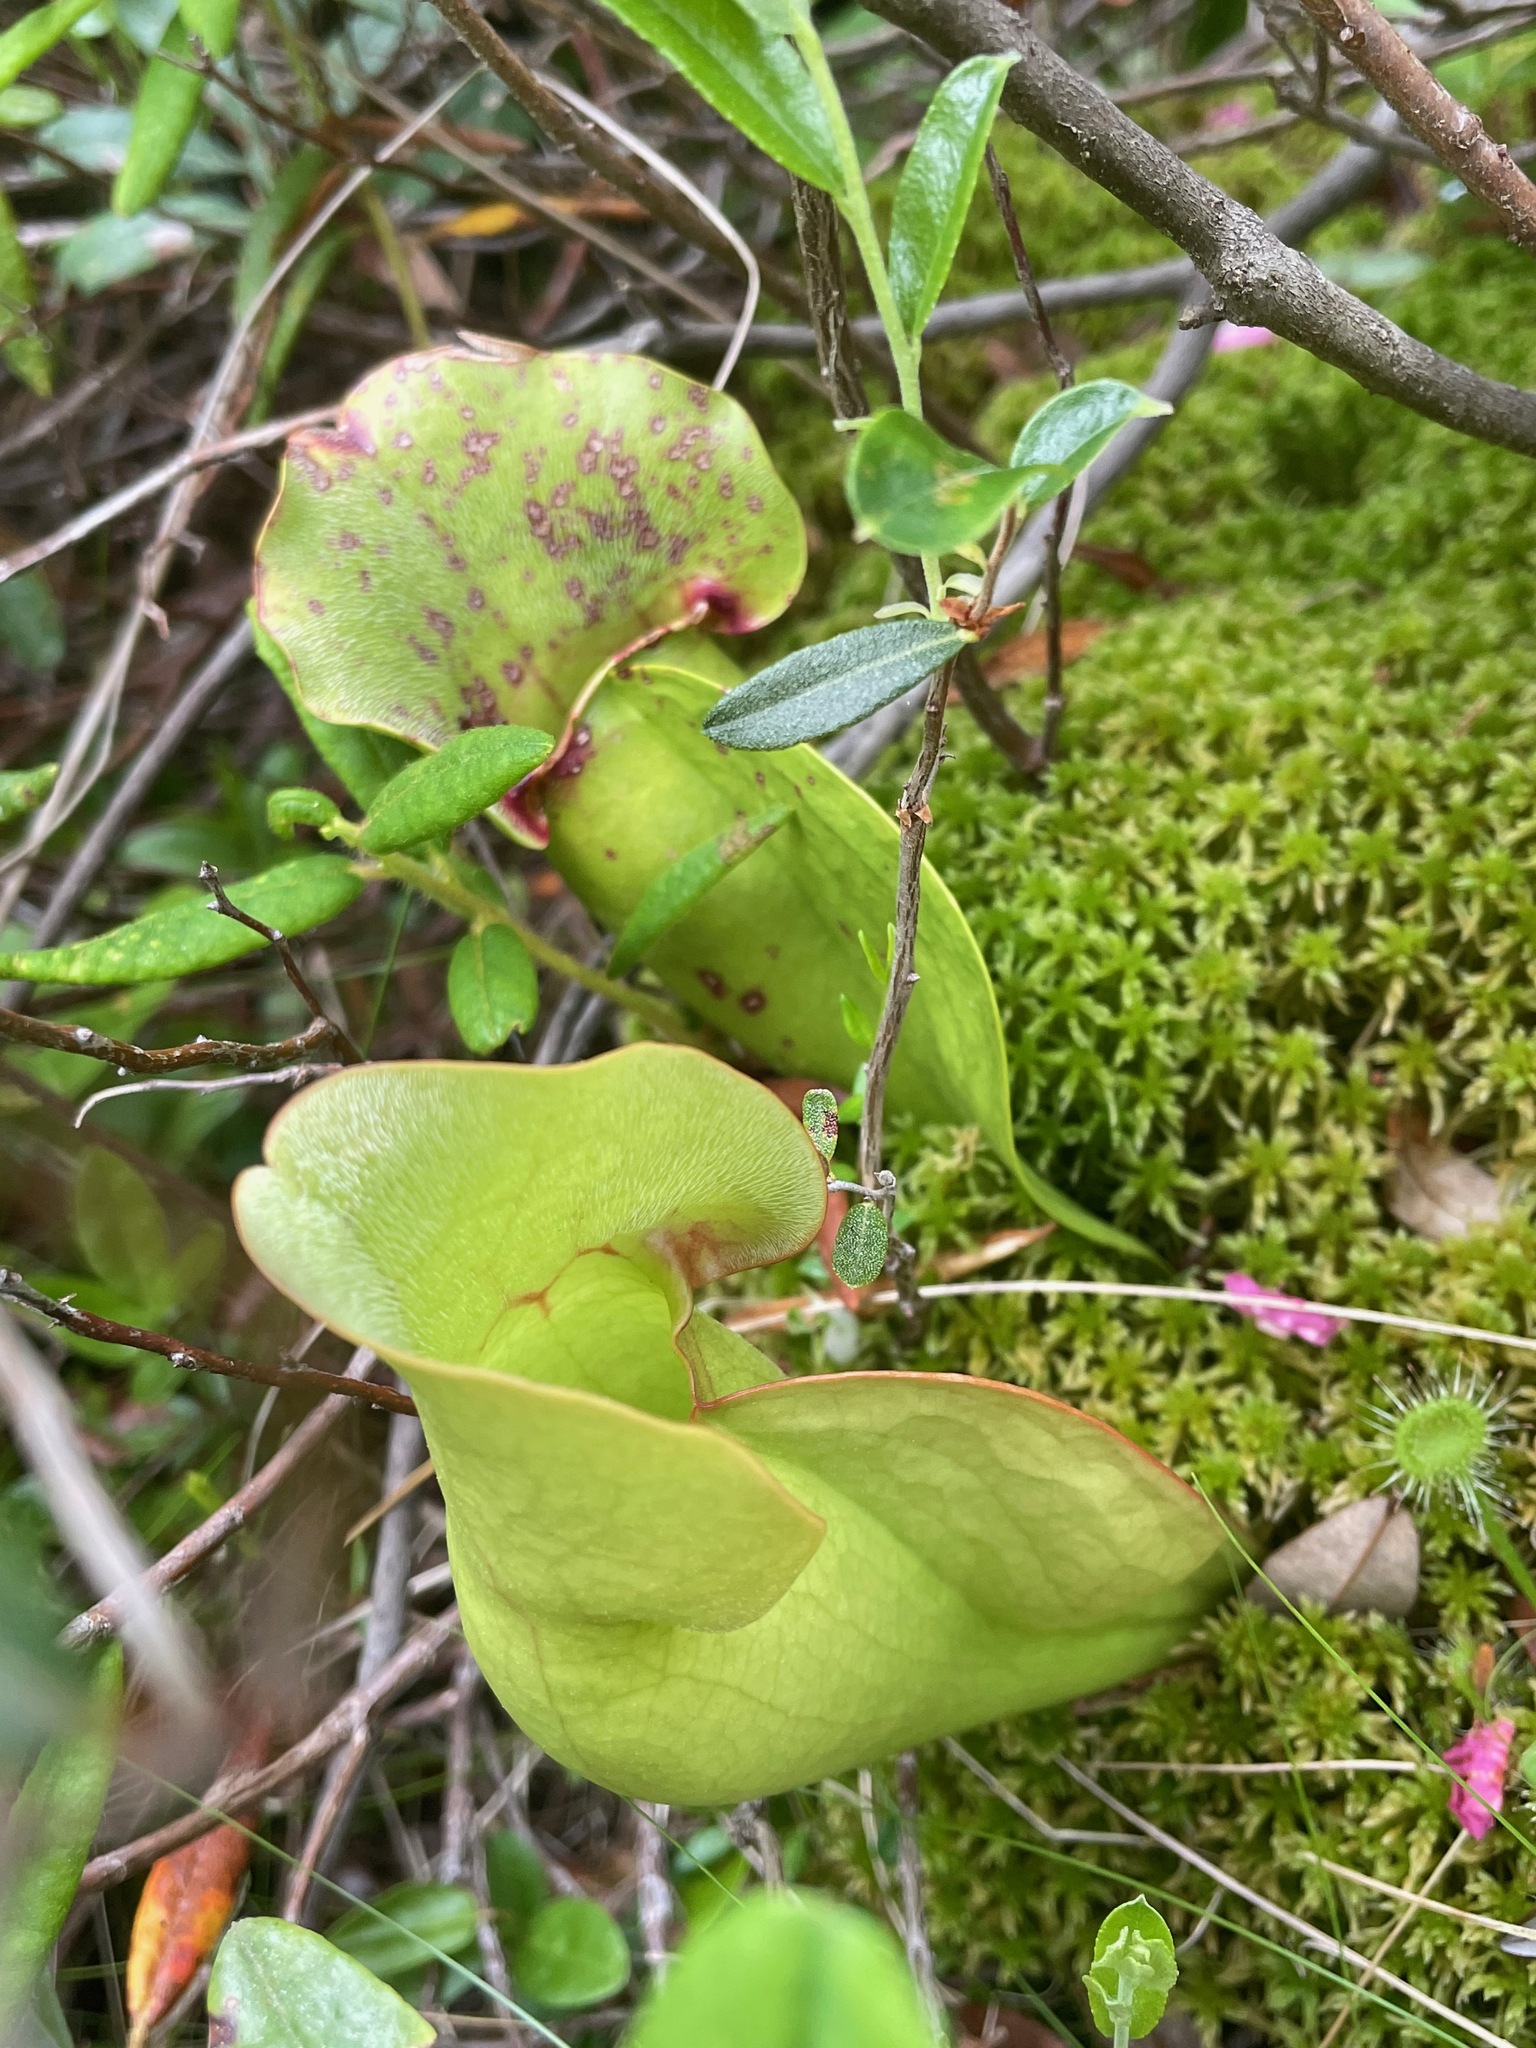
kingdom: Plantae
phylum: Tracheophyta
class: Magnoliopsida
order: Ericales
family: Sarraceniaceae
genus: Sarracenia
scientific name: Sarracenia purpurea
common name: Pitcherplant
